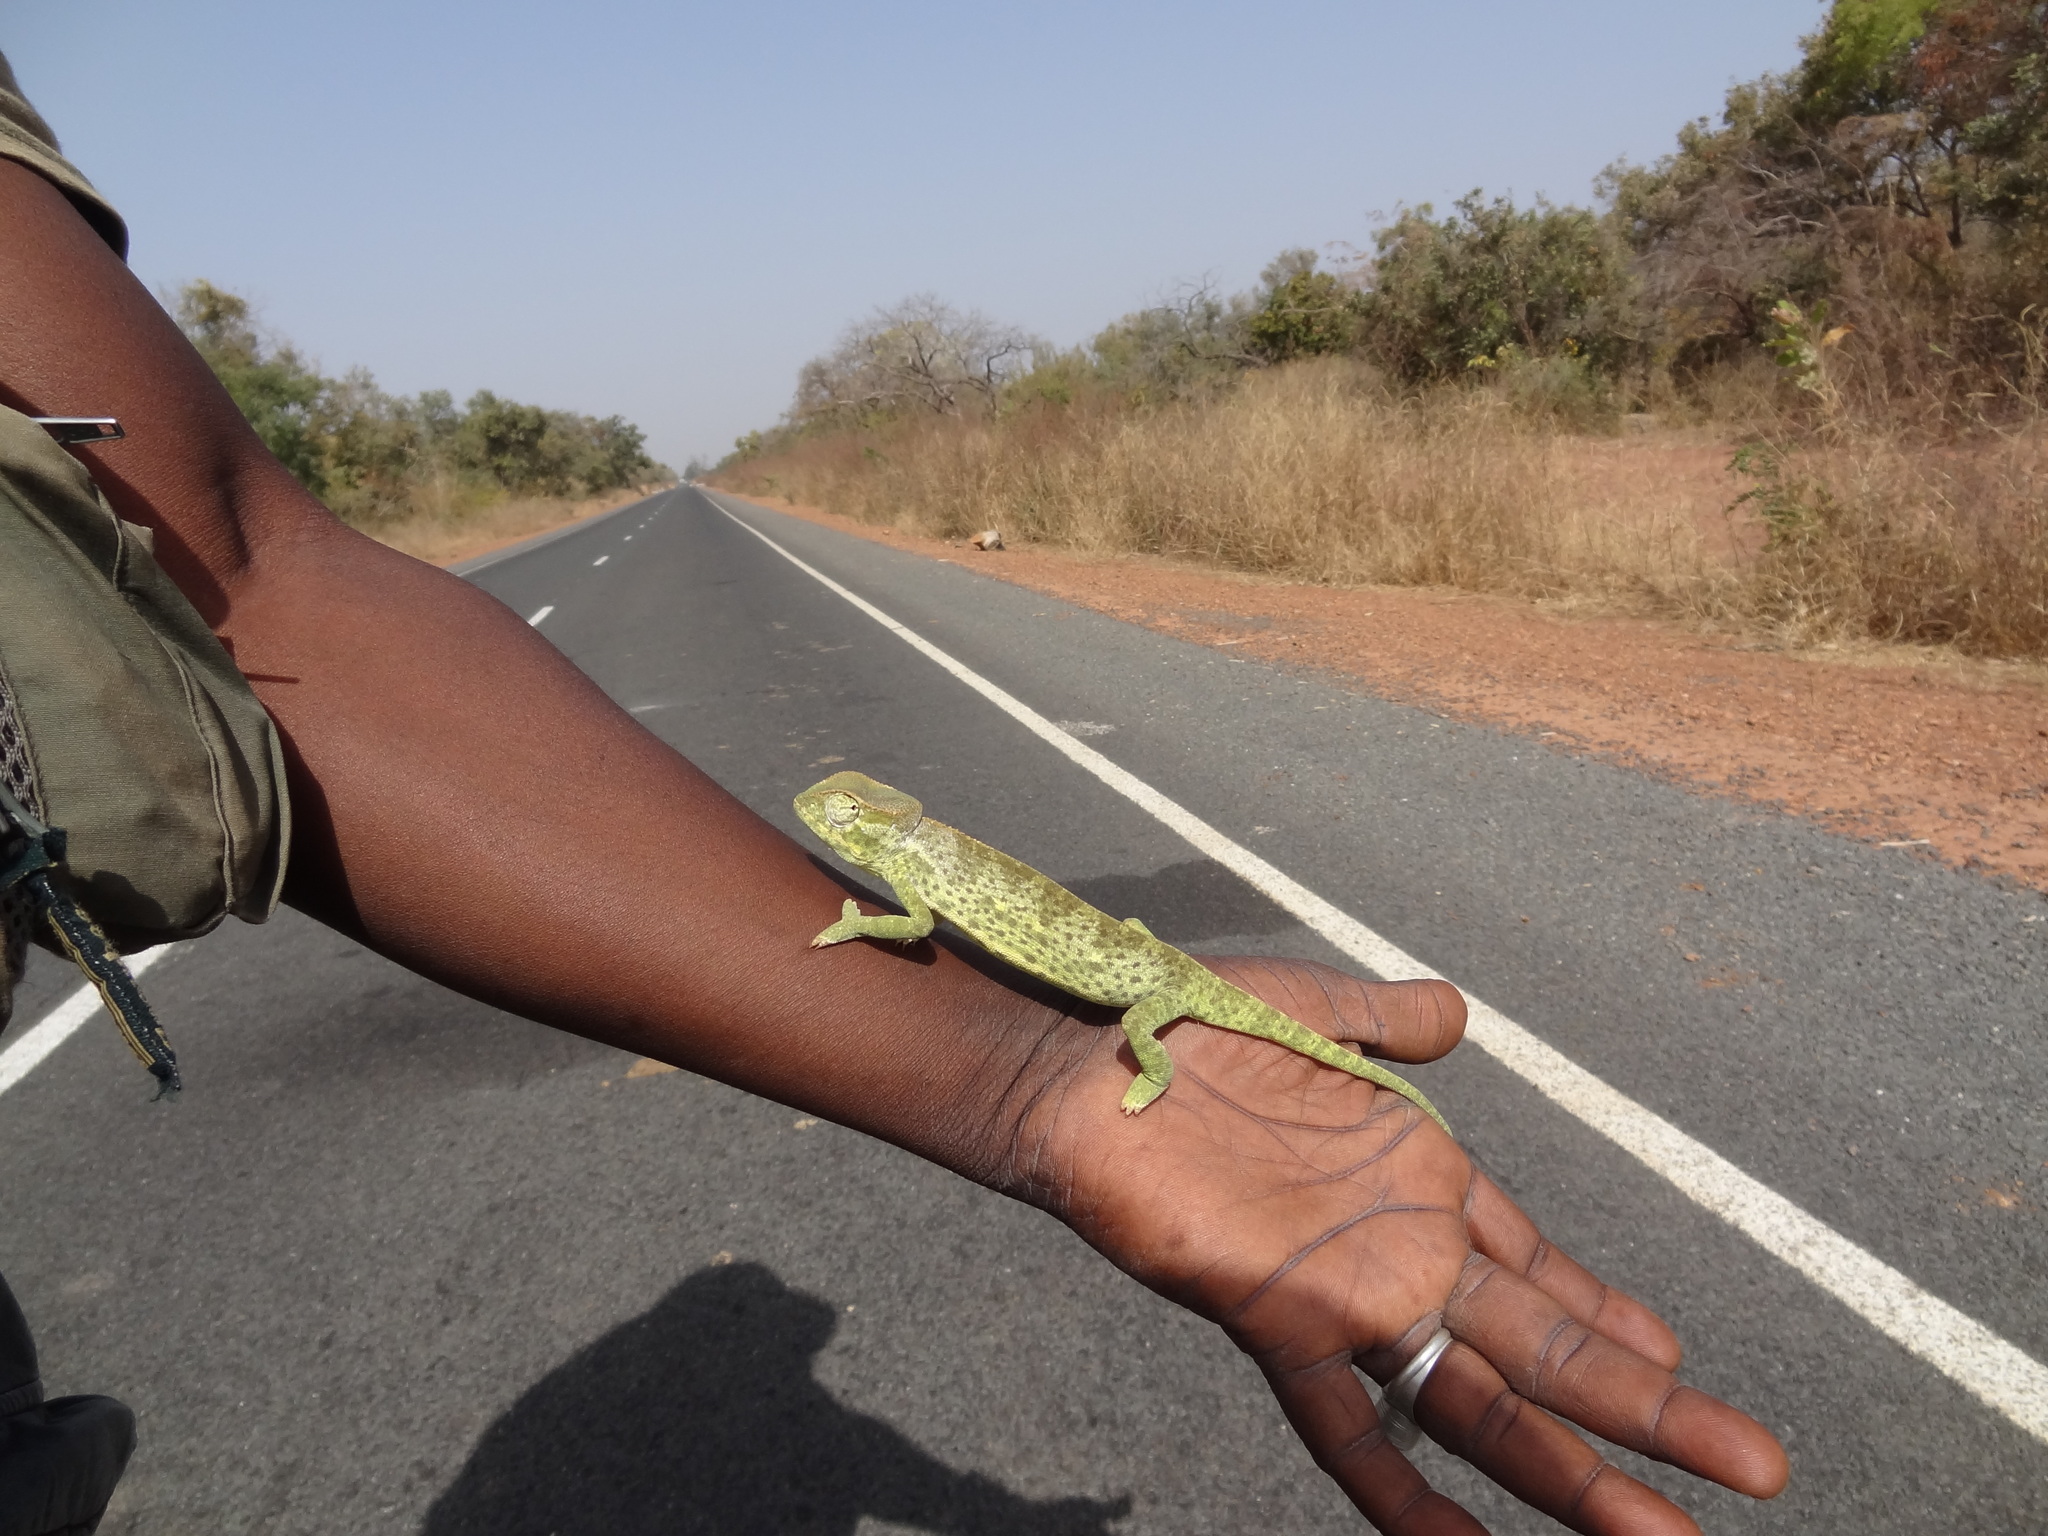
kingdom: Animalia
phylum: Chordata
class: Squamata
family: Chamaeleonidae
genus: Chamaeleo
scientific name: Chamaeleo senegalensis
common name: Senegal chameleon
